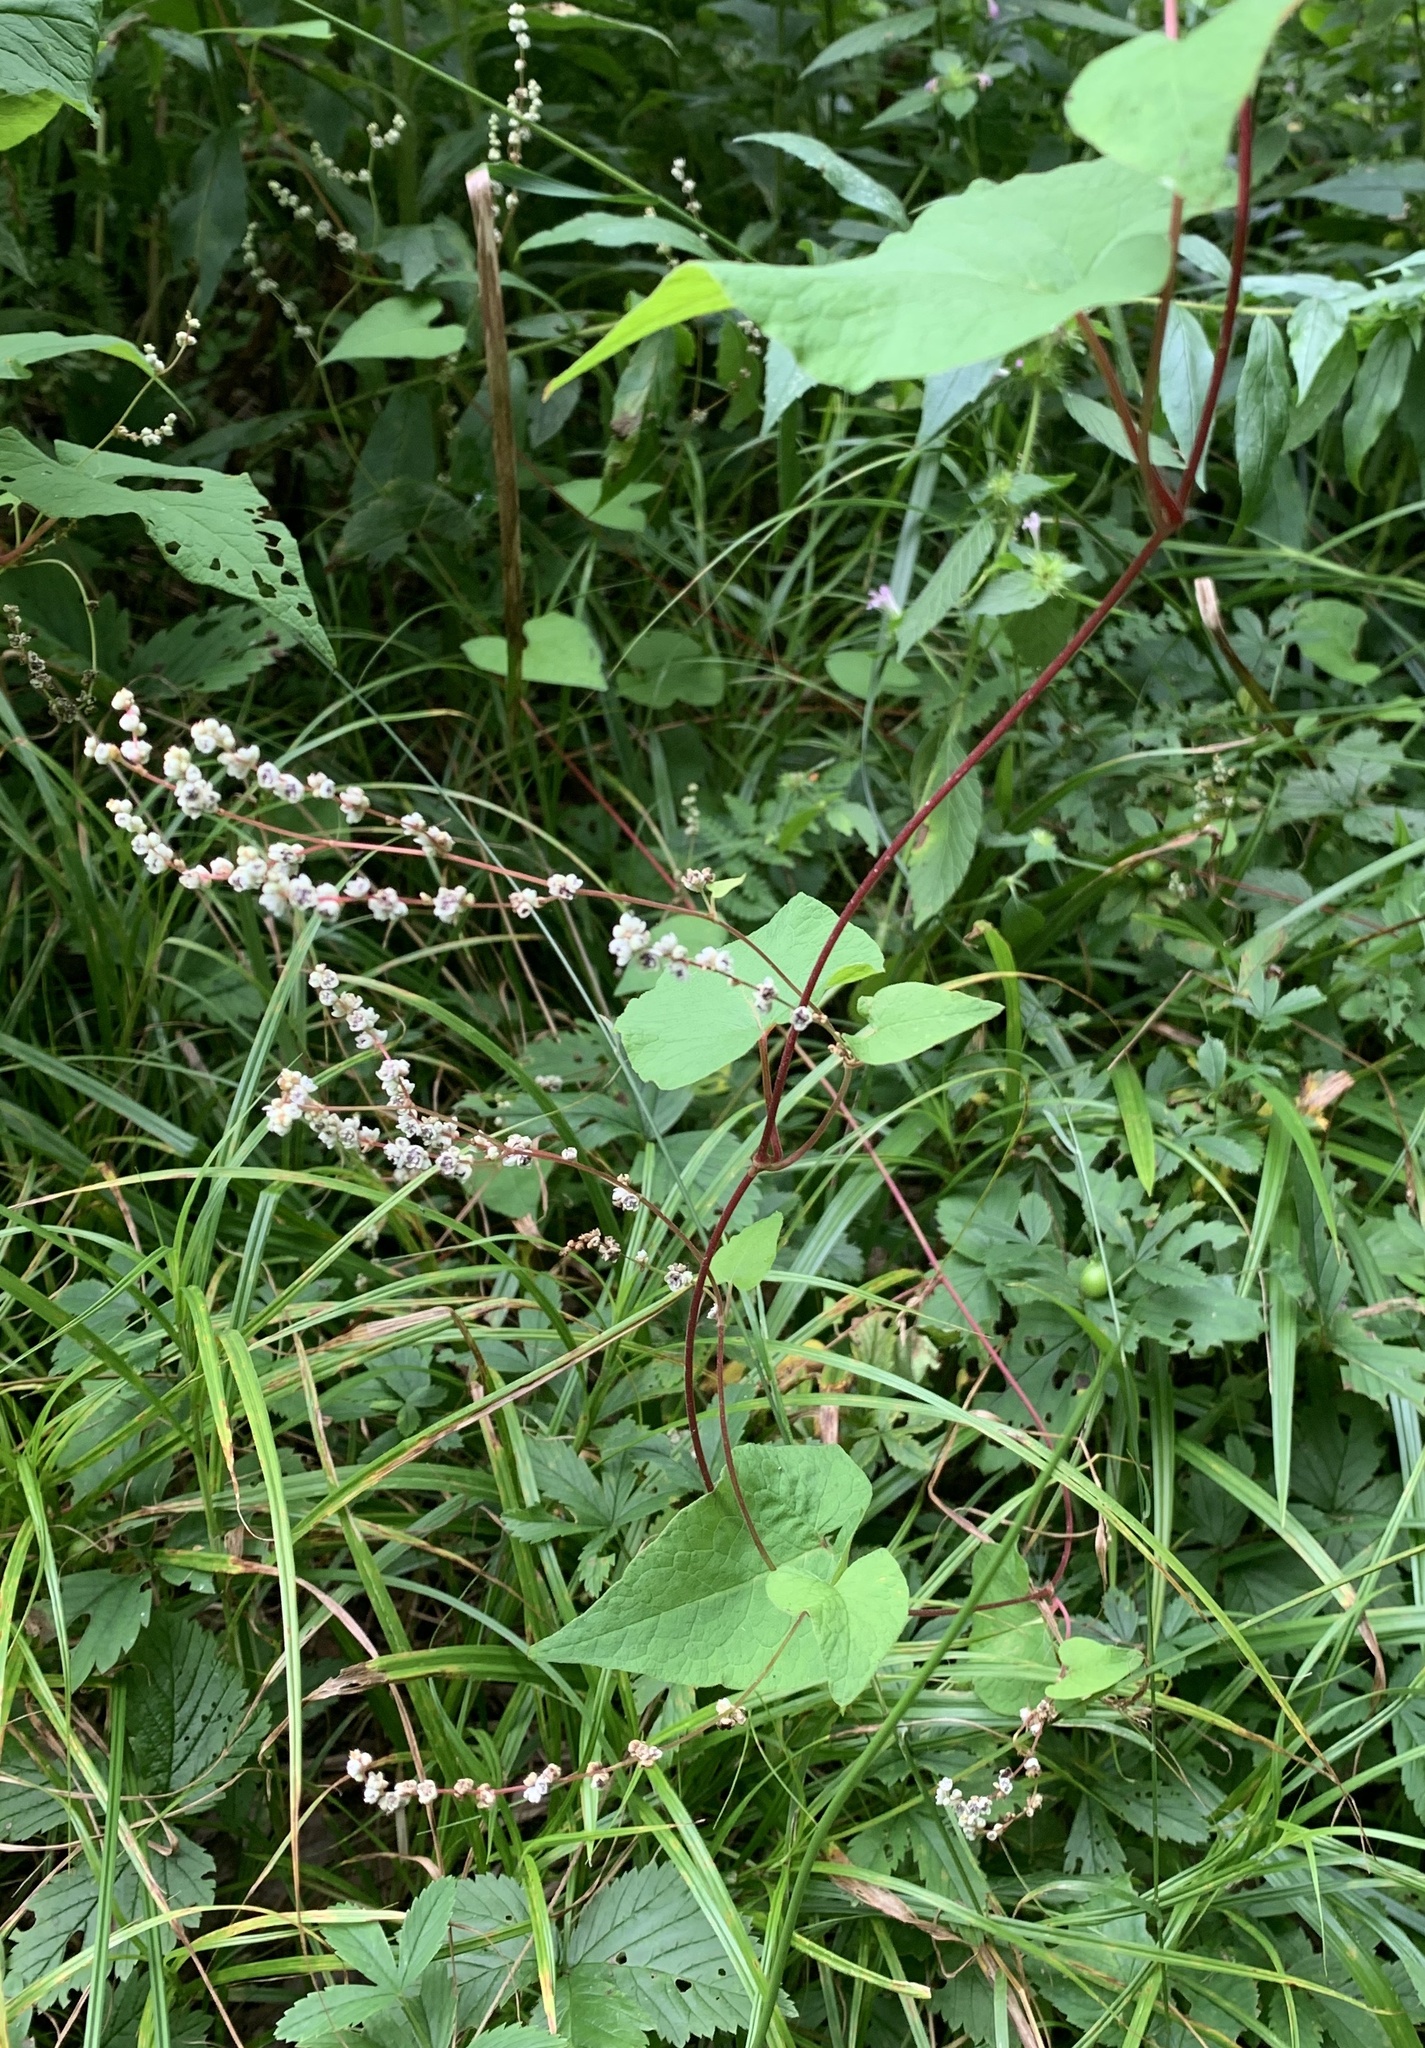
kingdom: Plantae
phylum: Tracheophyta
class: Magnoliopsida
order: Caryophyllales
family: Polygonaceae
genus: Parogonum
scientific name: Parogonum ciliinode
